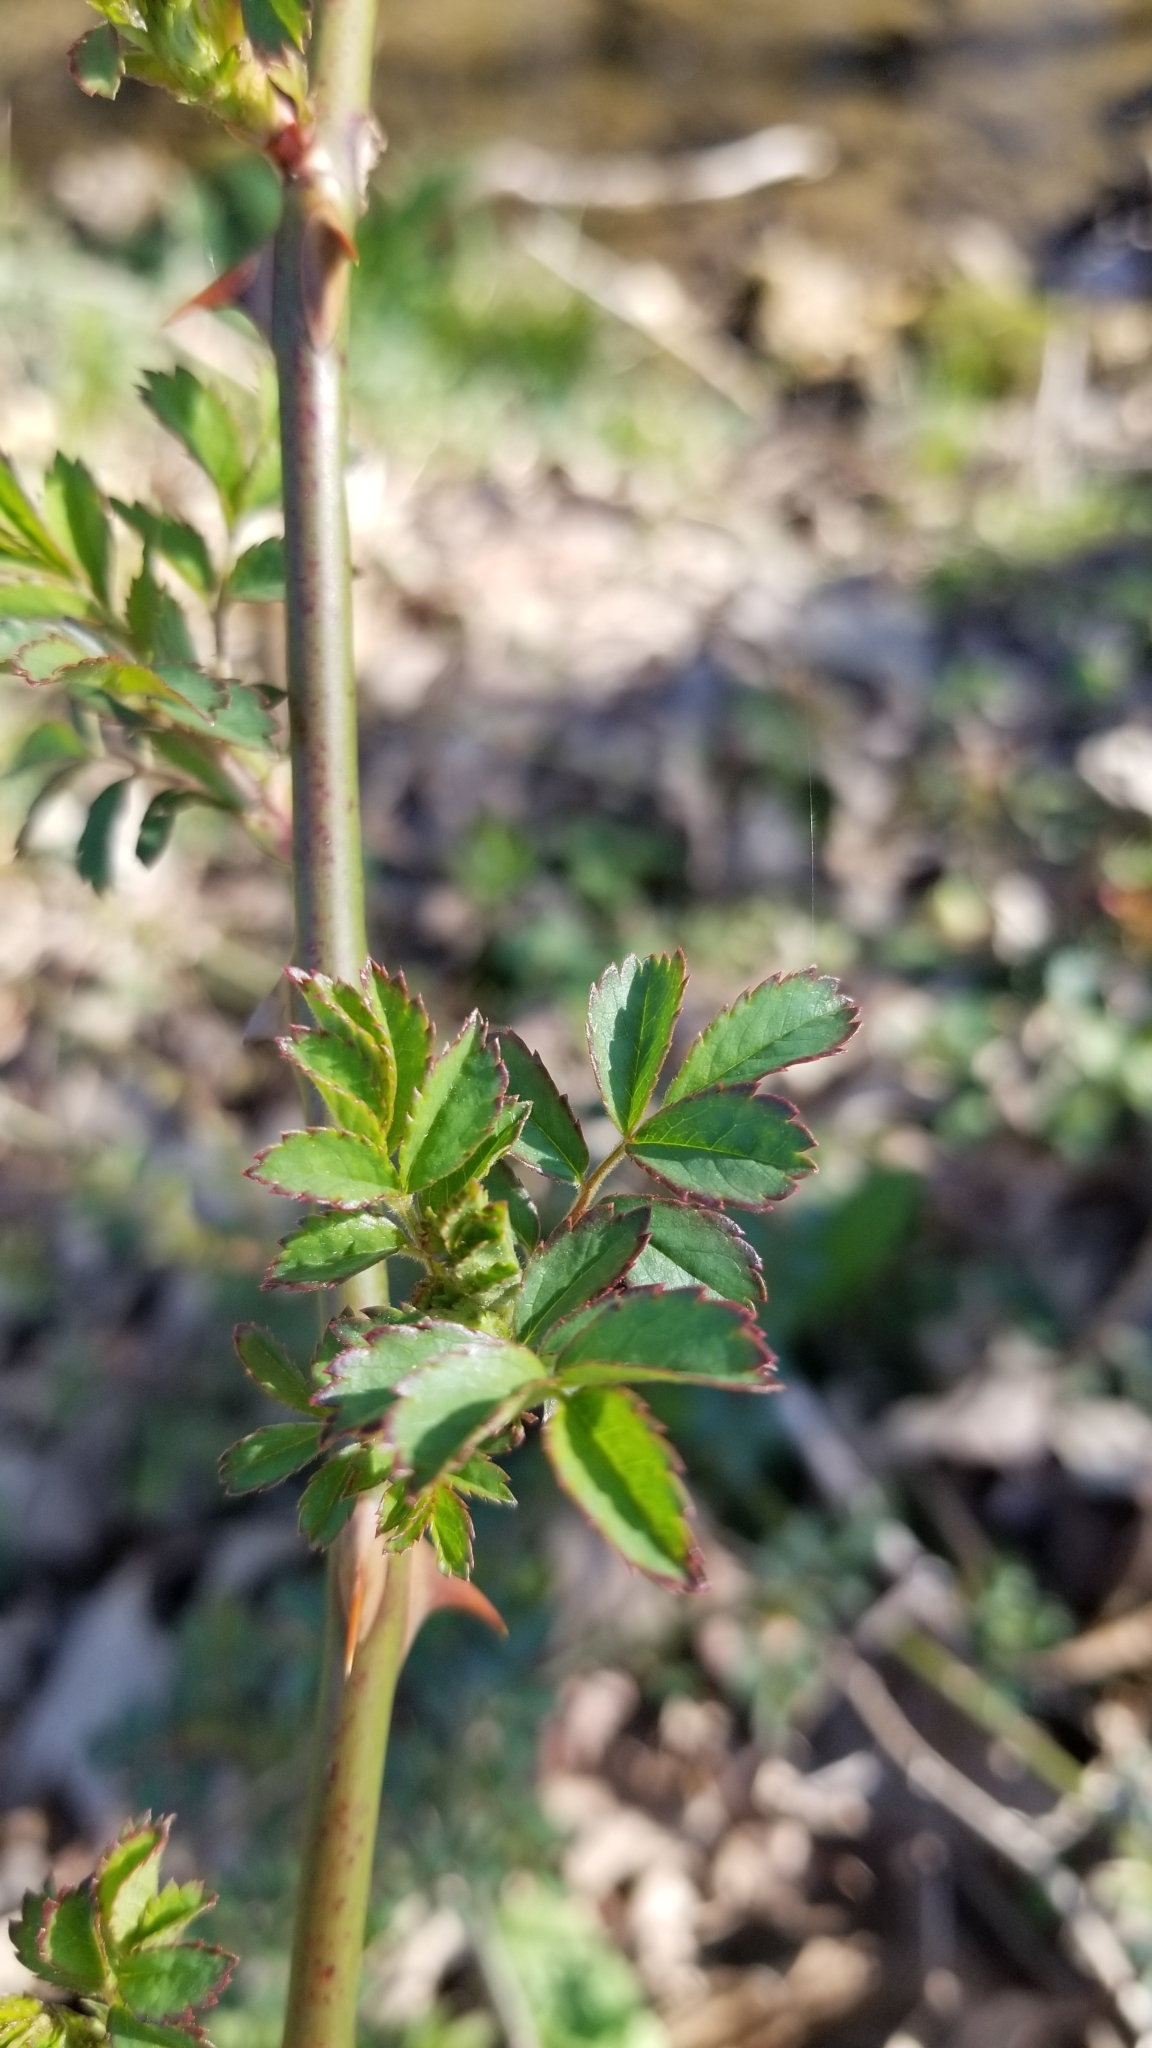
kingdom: Plantae
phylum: Tracheophyta
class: Magnoliopsida
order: Rosales
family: Rosaceae
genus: Rosa
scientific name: Rosa multiflora
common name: Multiflora rose
